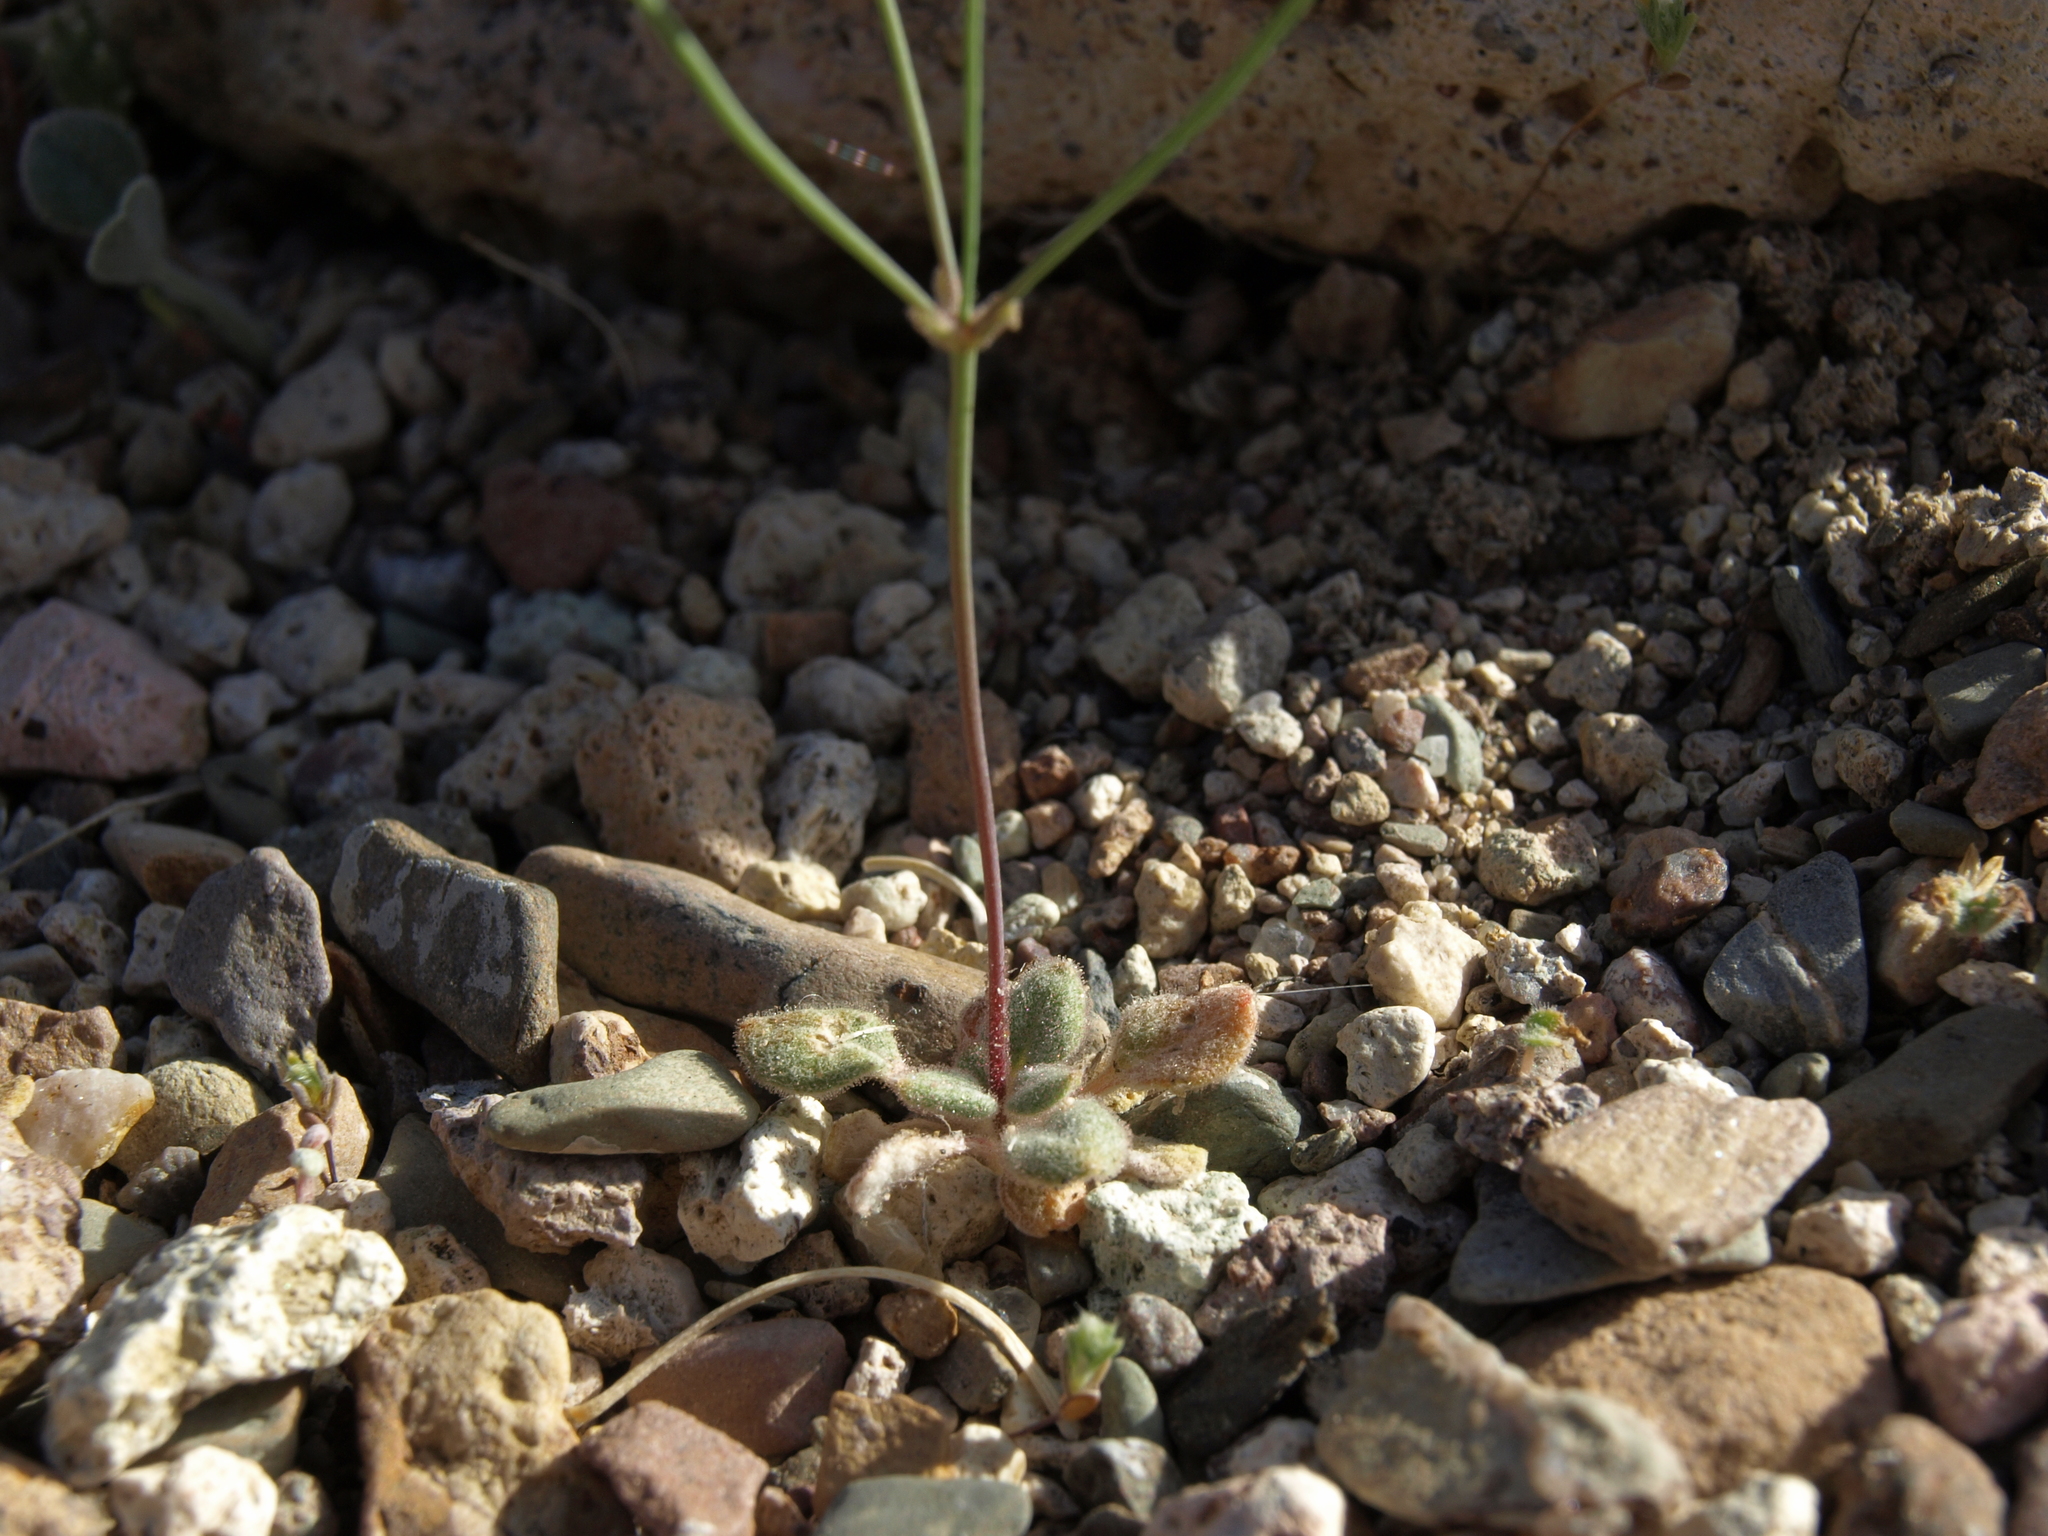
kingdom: Plantae
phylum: Tracheophyta
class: Magnoliopsida
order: Caryophyllales
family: Polygonaceae
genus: Eriogonum
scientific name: Eriogonum pusillum
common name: Yellow turbans
